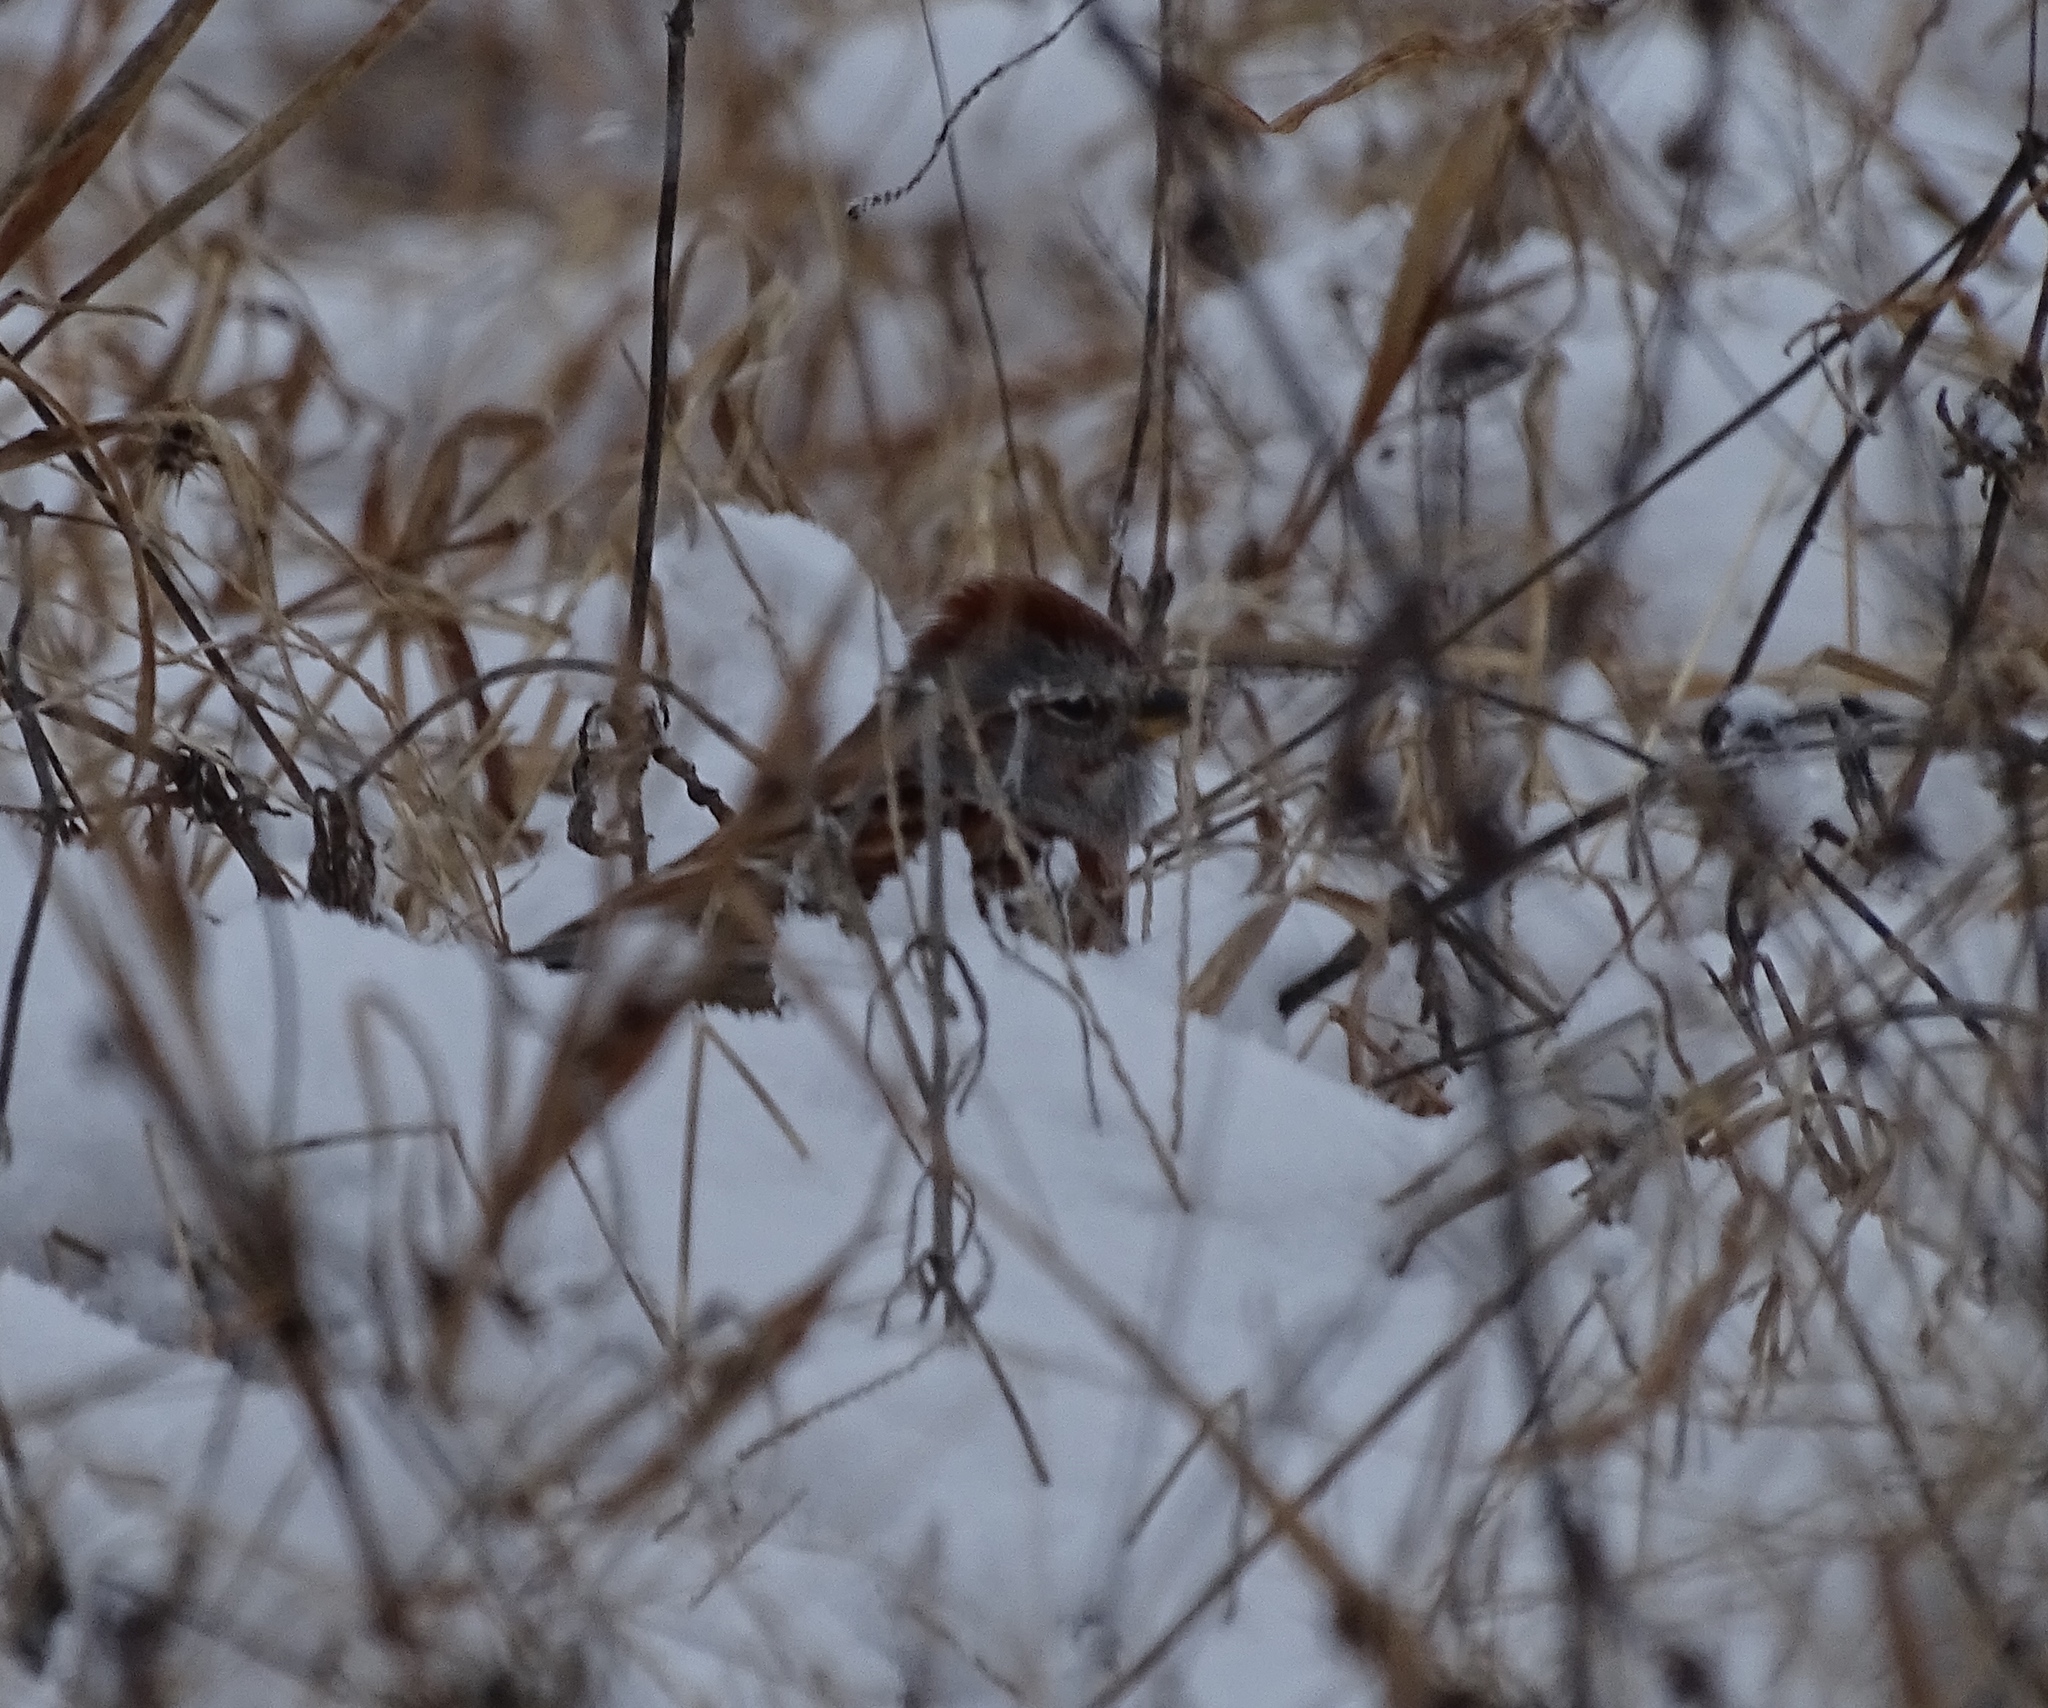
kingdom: Animalia
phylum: Chordata
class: Aves
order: Passeriformes
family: Passerellidae
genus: Spizelloides
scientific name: Spizelloides arborea
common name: American tree sparrow
